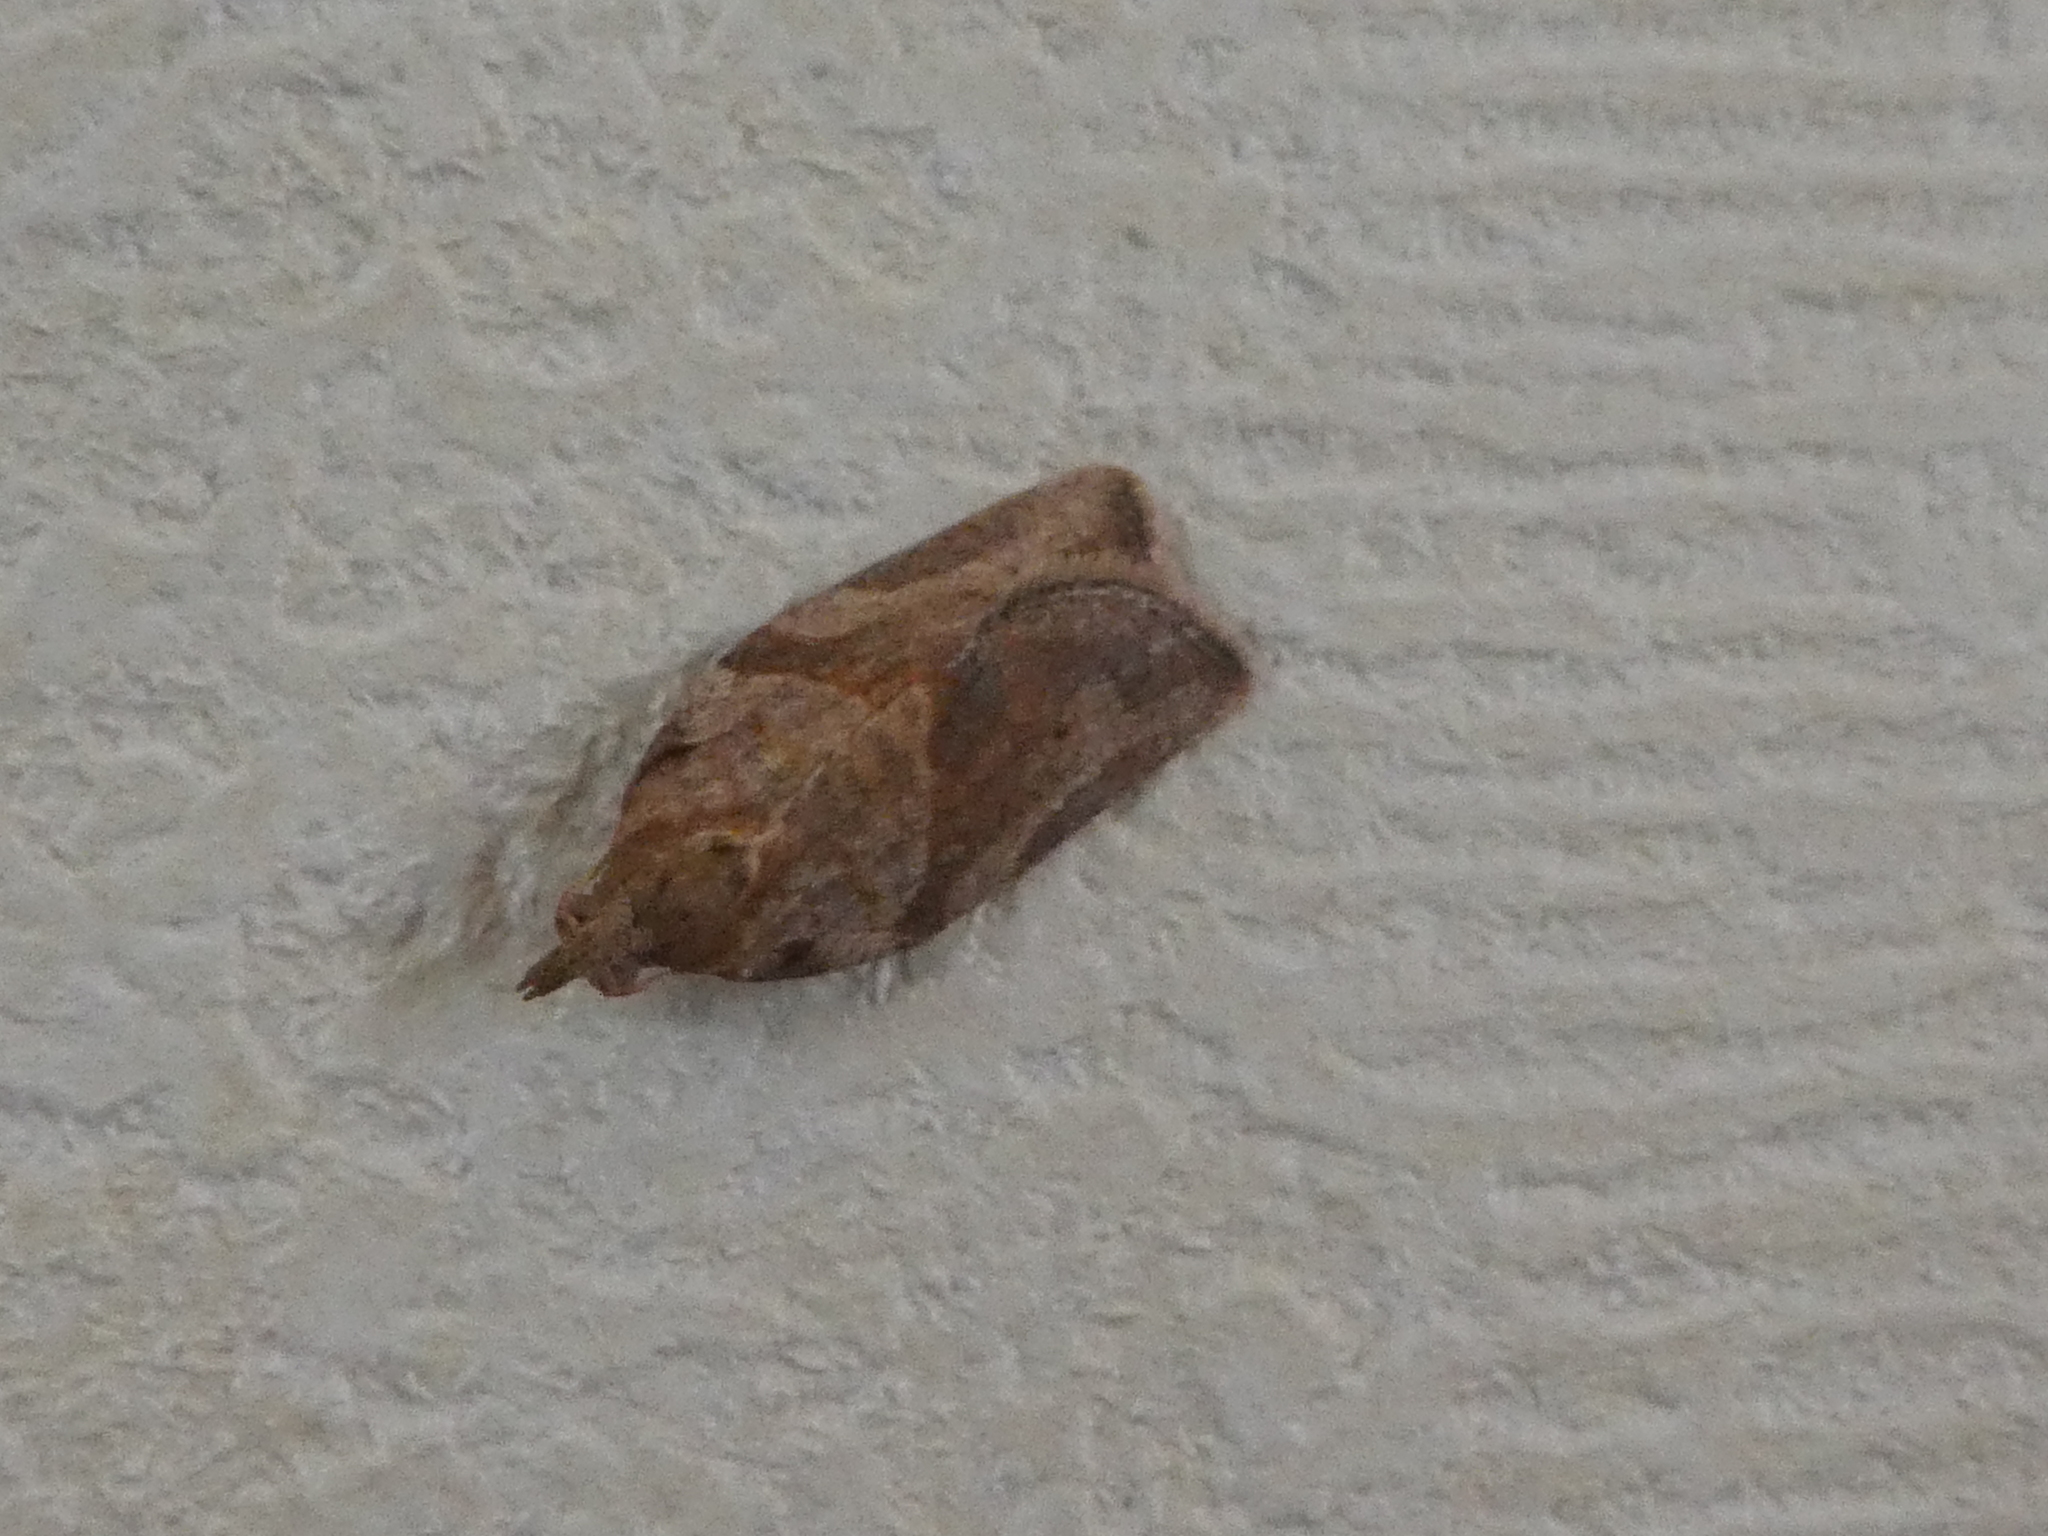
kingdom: Animalia
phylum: Arthropoda
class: Insecta
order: Lepidoptera
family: Tortricidae
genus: Epiphyas
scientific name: Epiphyas postvittana
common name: Light brown apple moth
